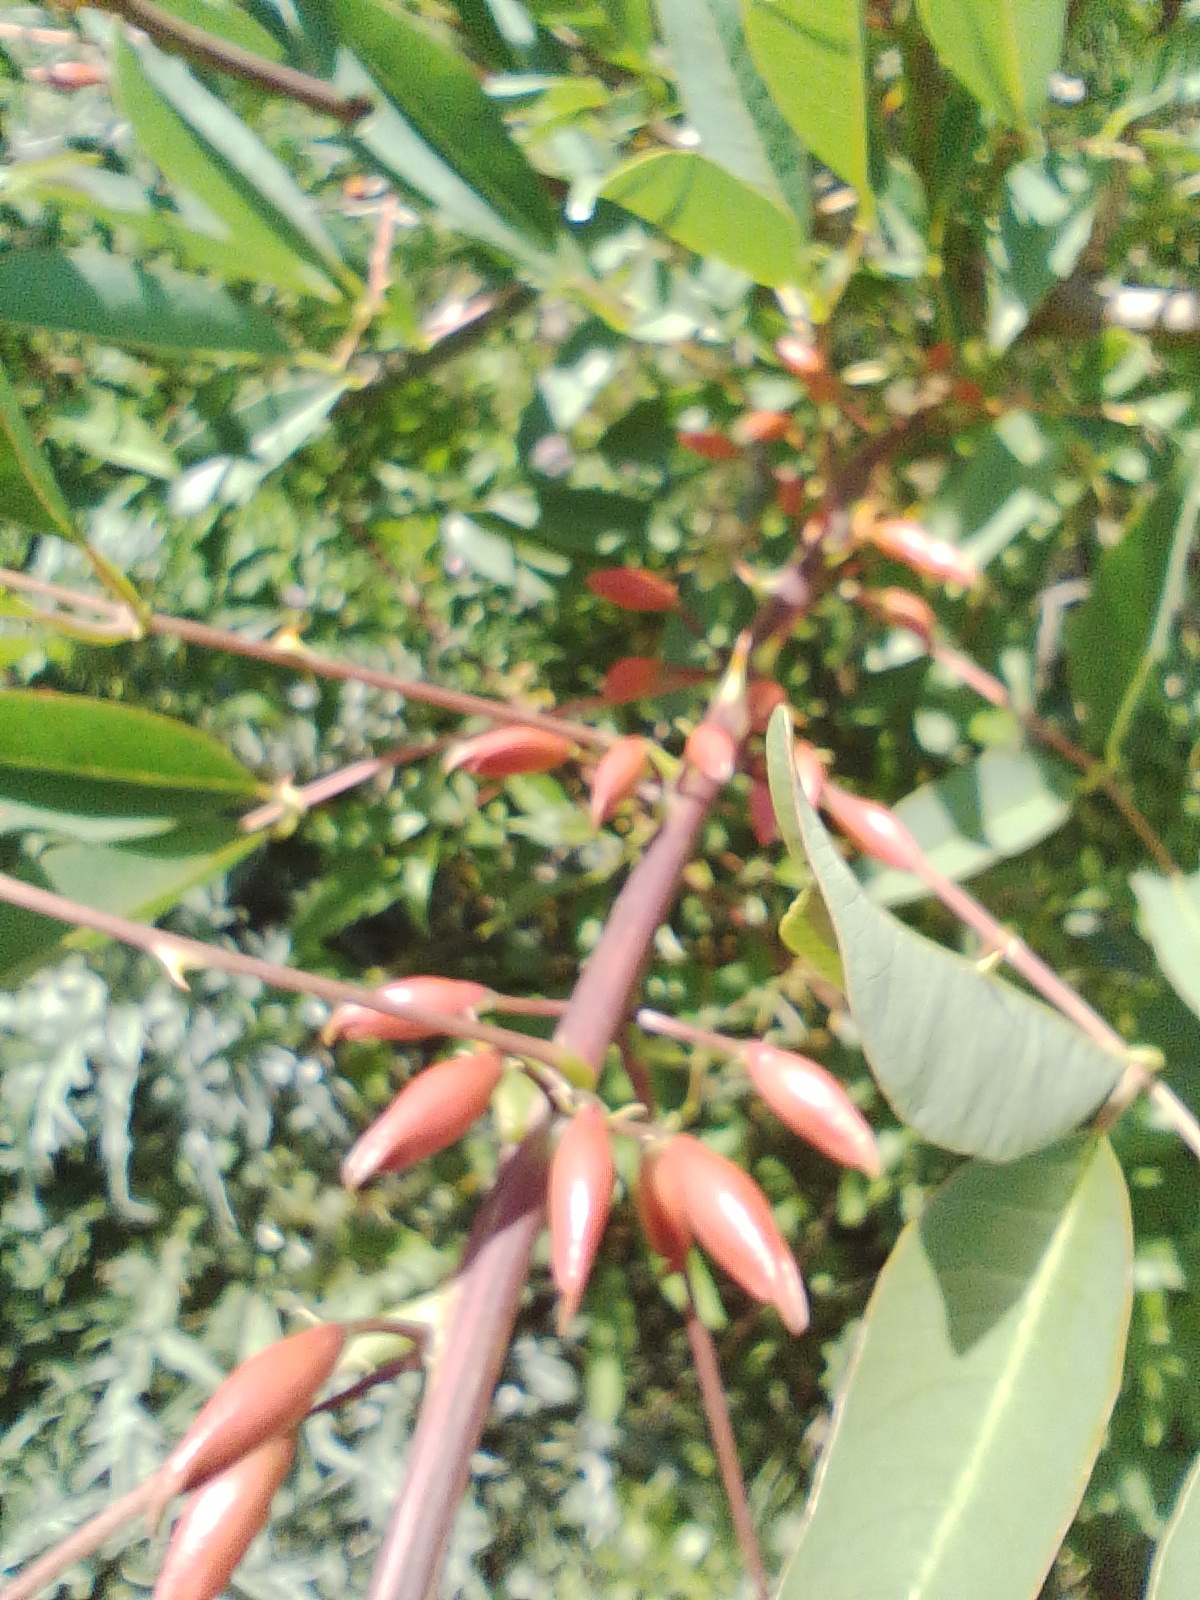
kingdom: Plantae
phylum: Tracheophyta
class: Magnoliopsida
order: Fabales
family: Fabaceae
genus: Erythrina
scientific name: Erythrina crista-galli
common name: Cockspur coral tree
